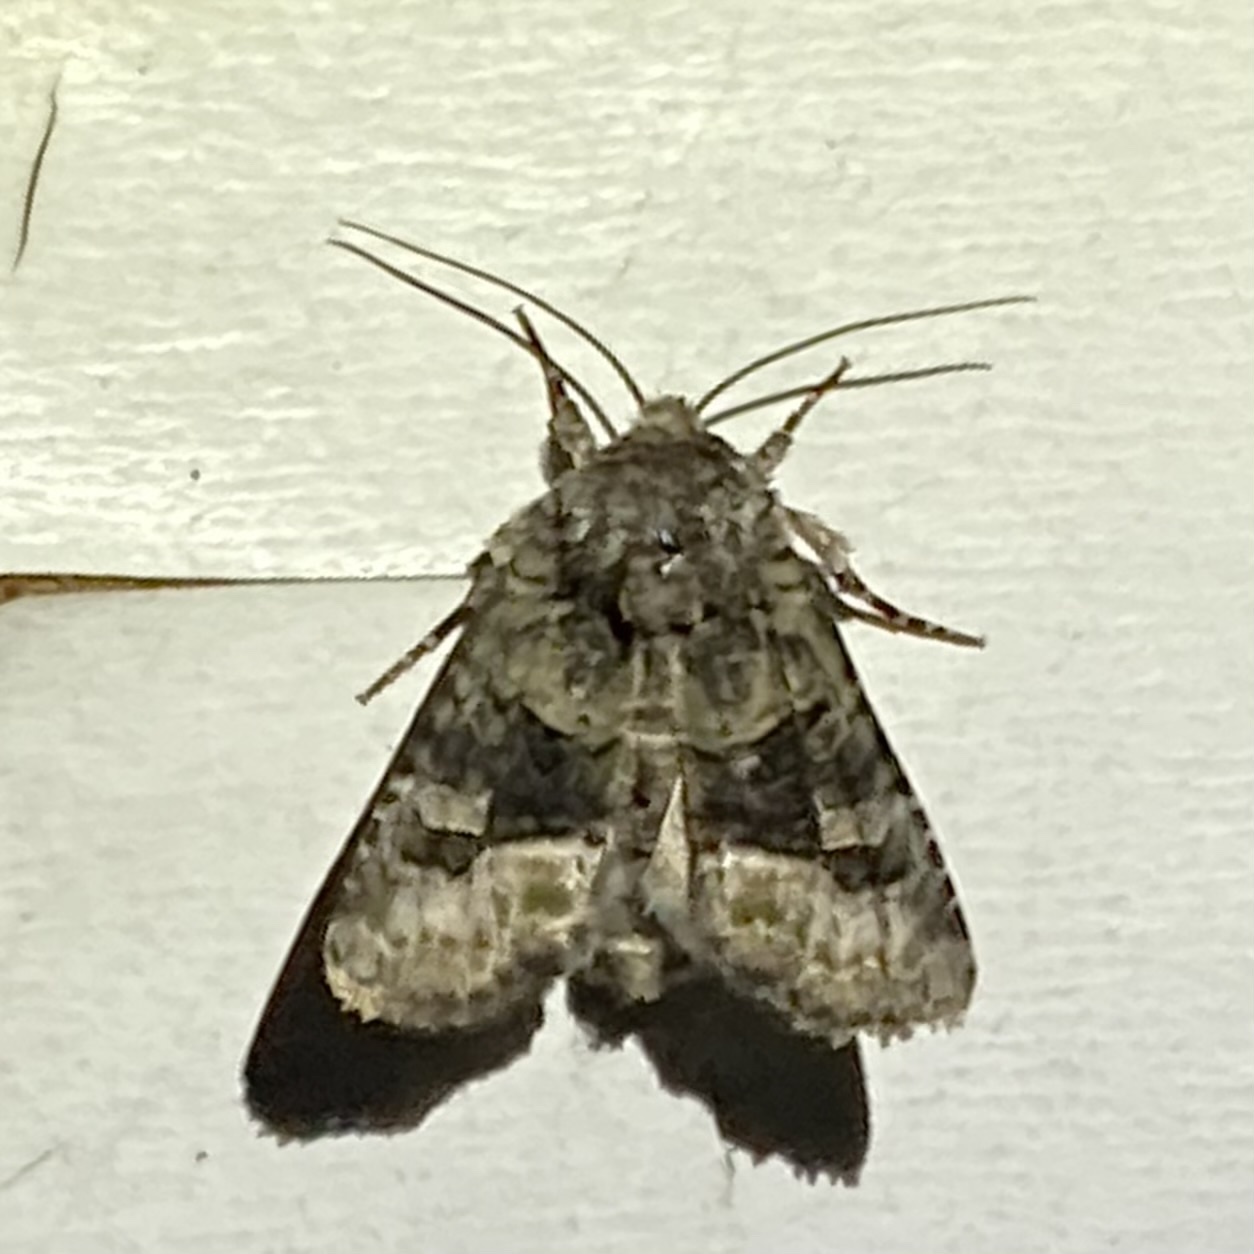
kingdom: Animalia
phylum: Arthropoda
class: Insecta
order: Lepidoptera
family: Noctuidae
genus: Lacinipolia
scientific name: Lacinipolia olivacea
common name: Olive arches moth
